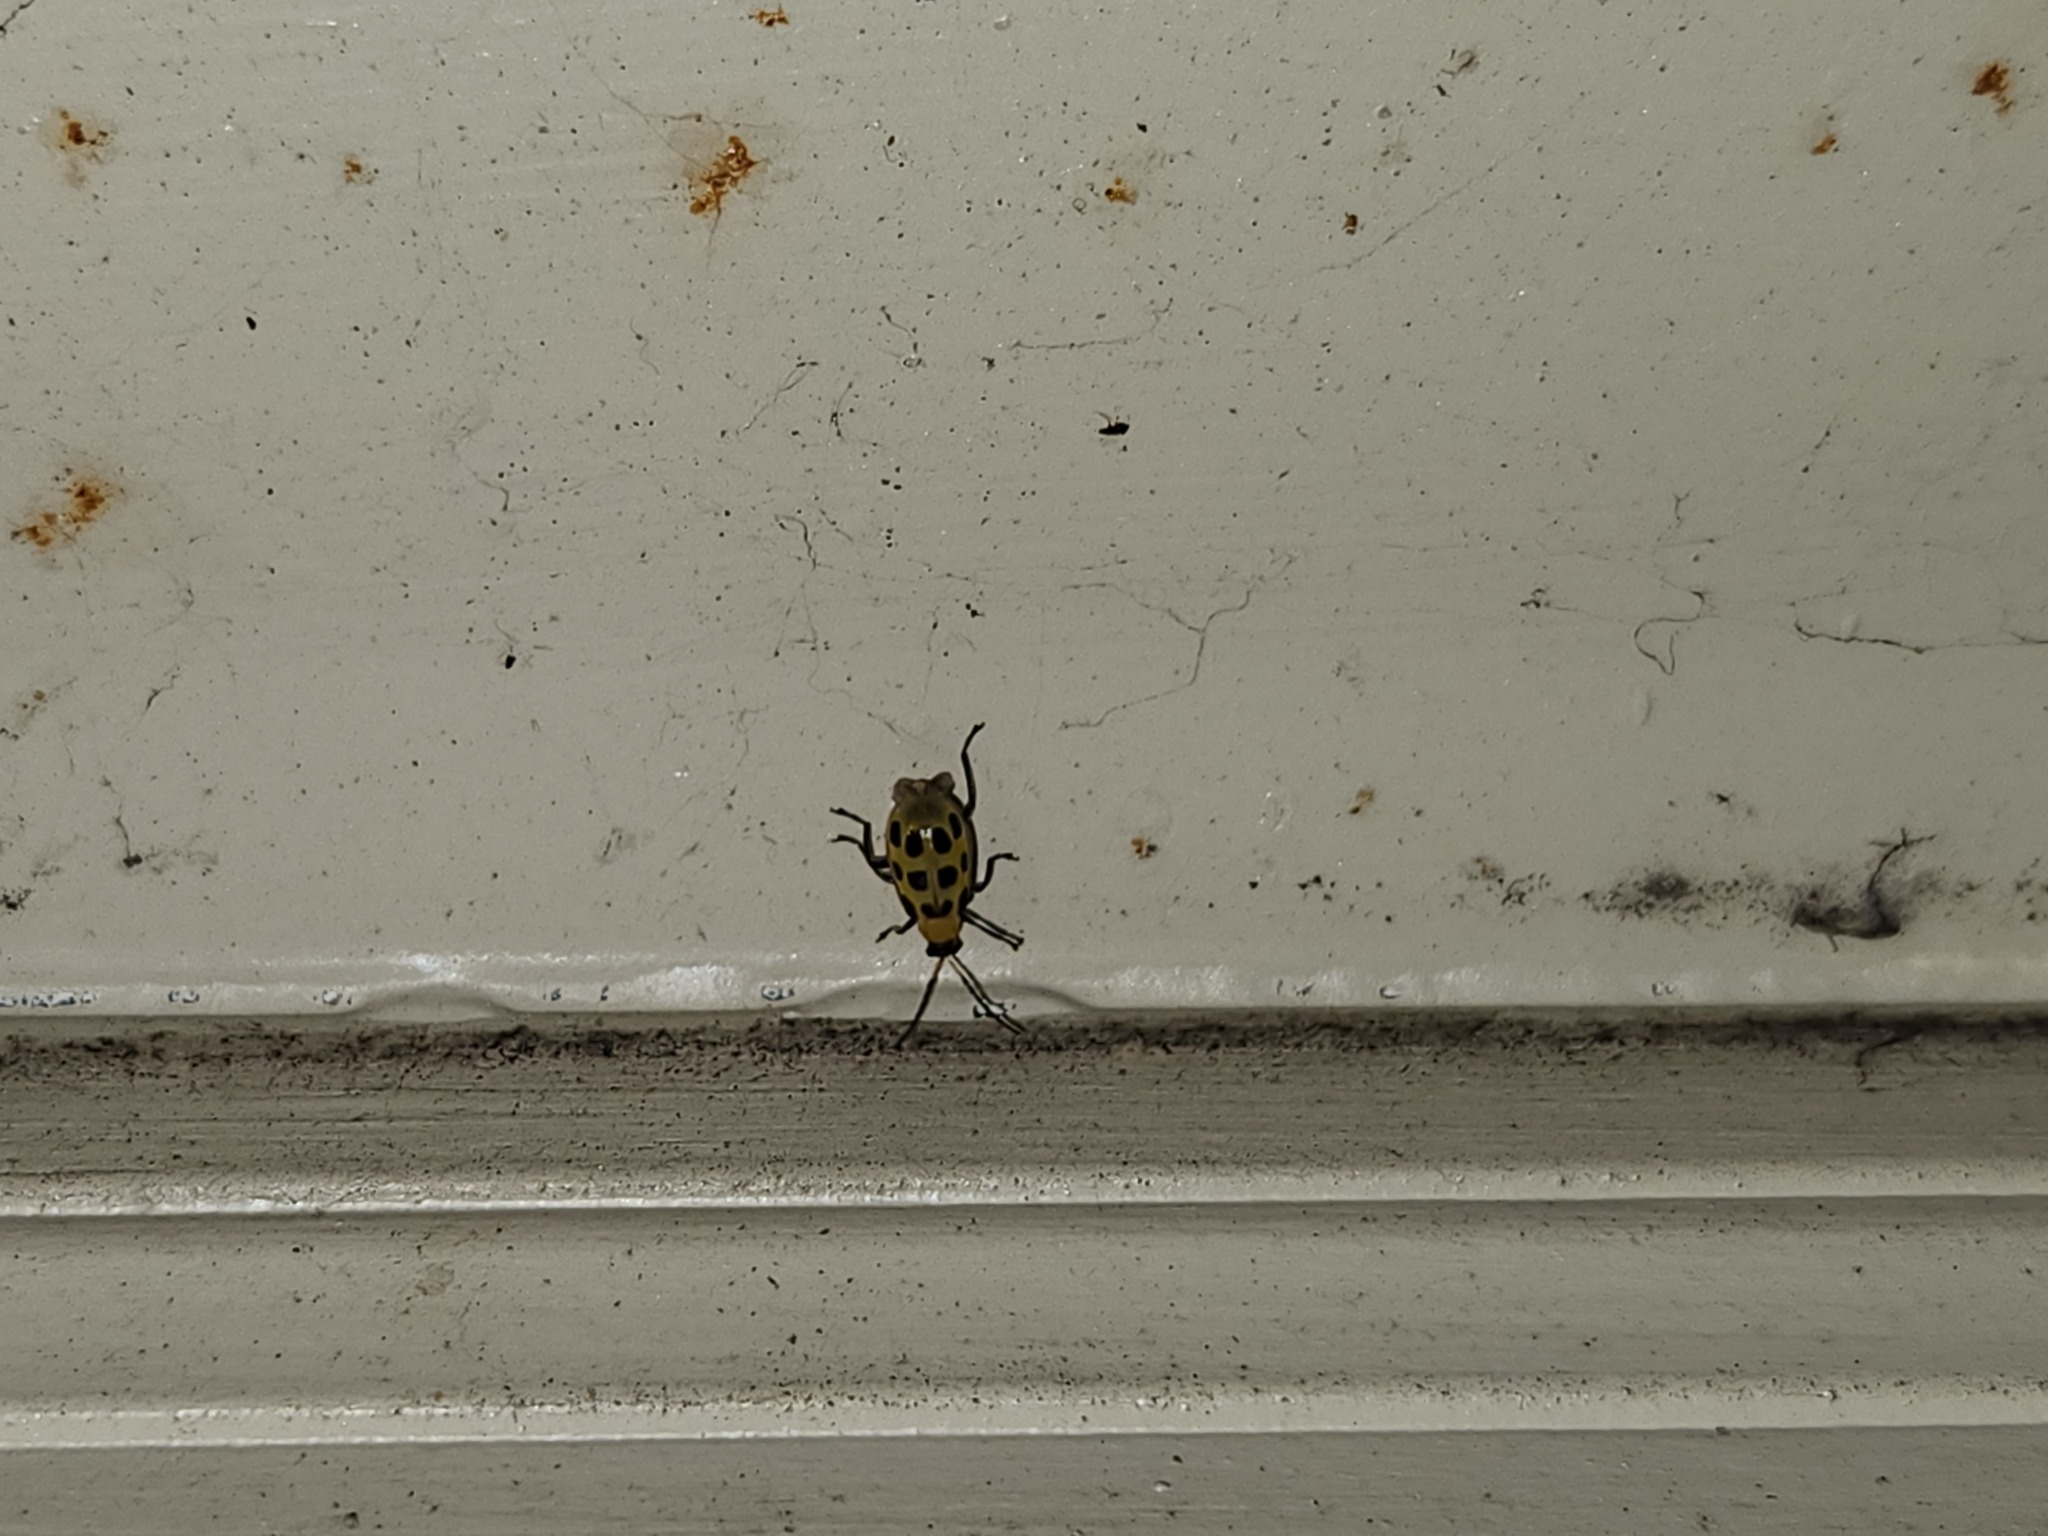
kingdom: Animalia
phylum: Arthropoda
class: Insecta
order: Coleoptera
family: Chrysomelidae
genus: Diabrotica
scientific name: Diabrotica undecimpunctata
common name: Spotted cucumber beetle
